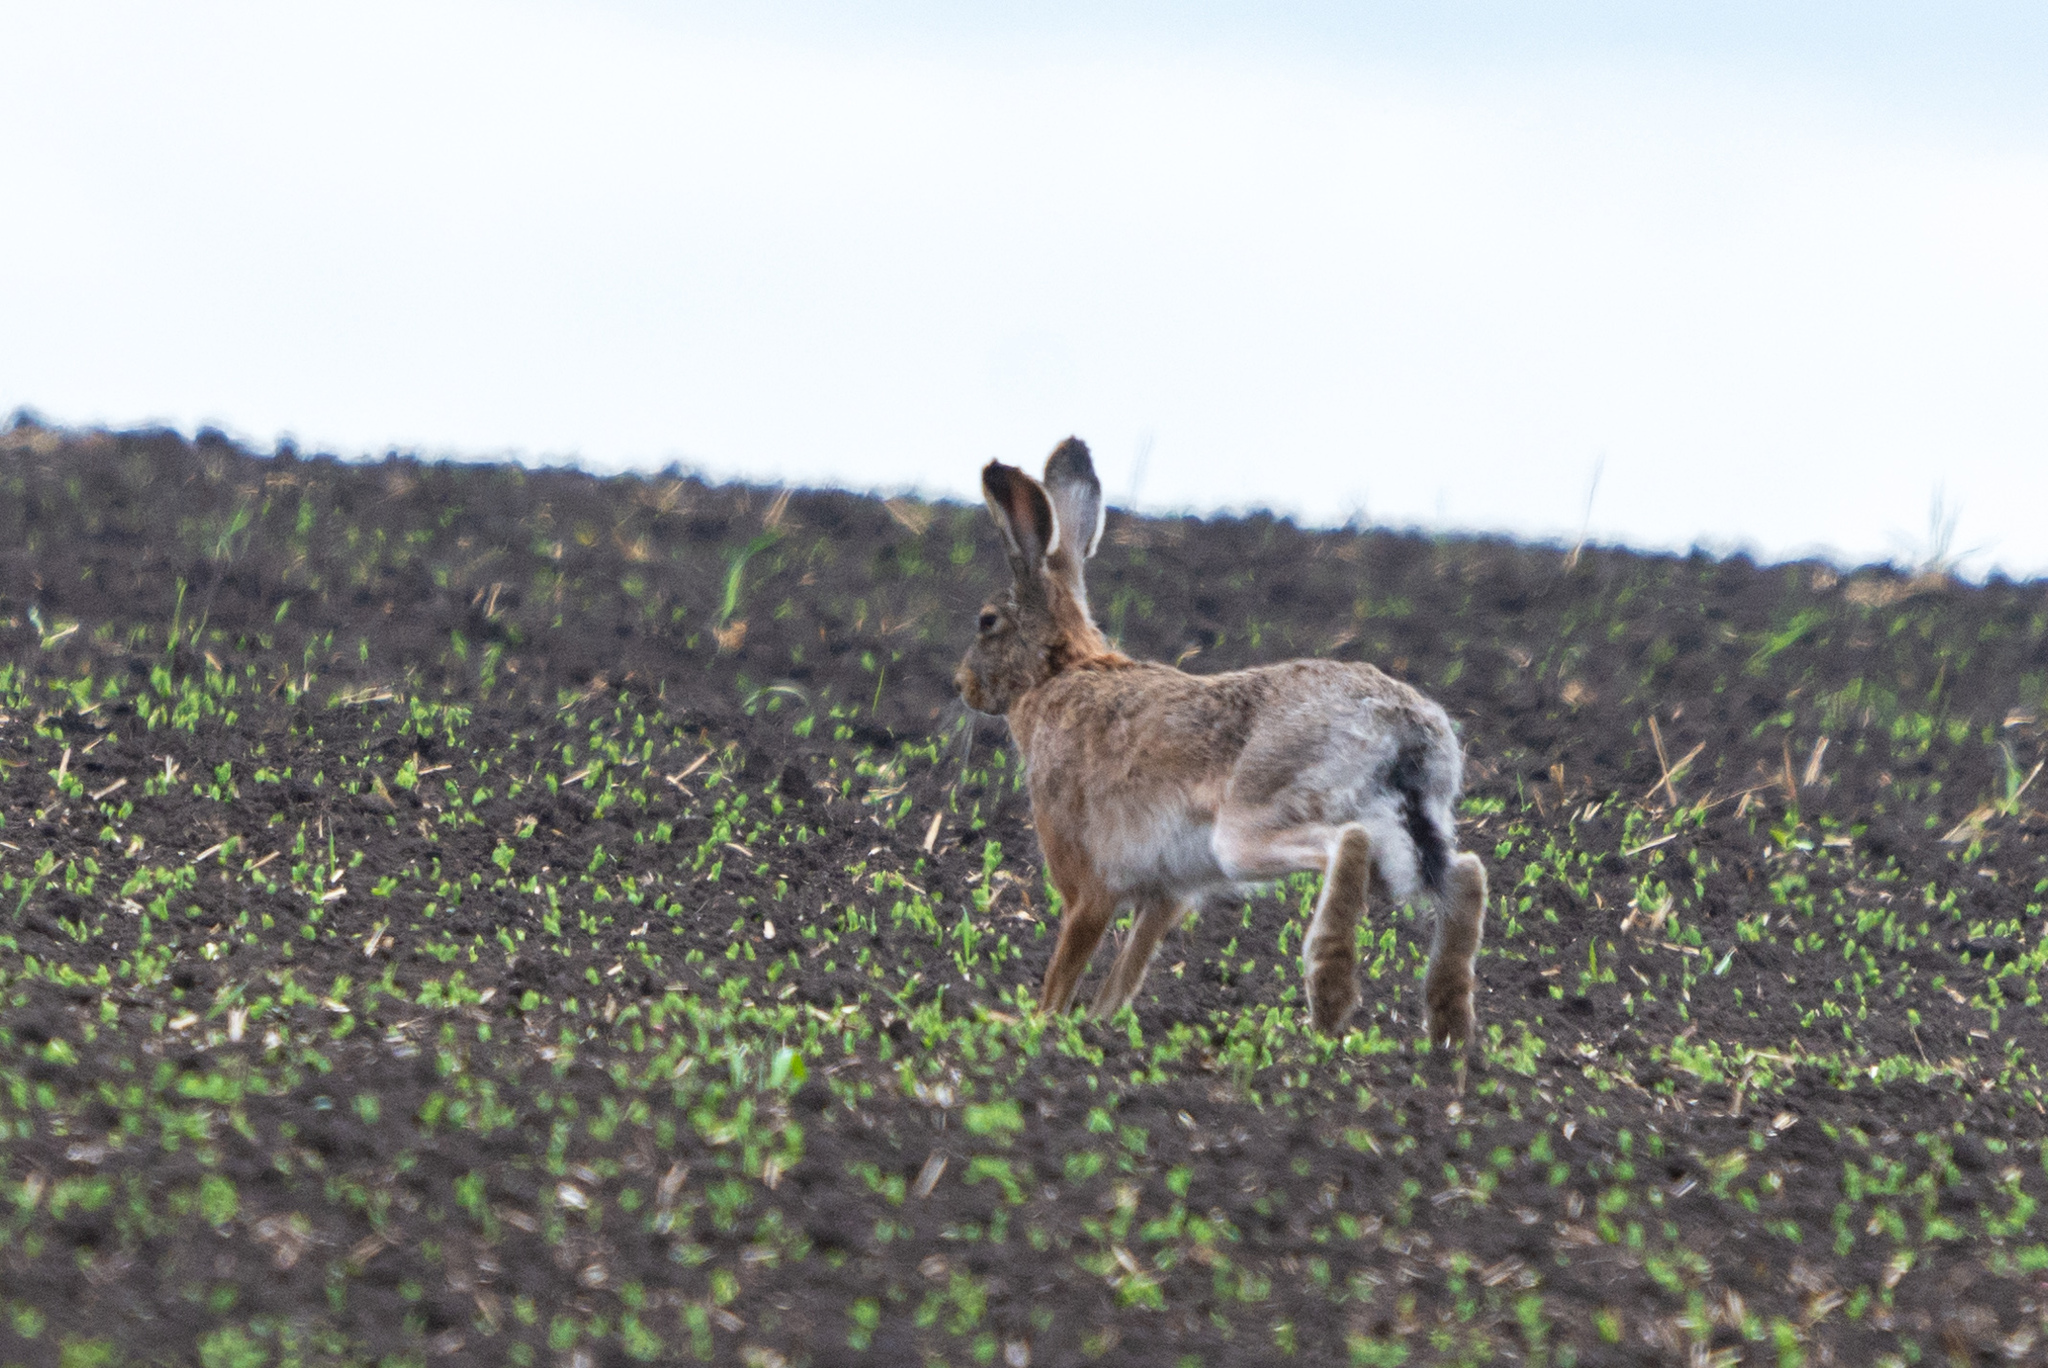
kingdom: Animalia
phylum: Chordata
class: Mammalia
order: Lagomorpha
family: Leporidae
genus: Lepus
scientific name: Lepus europaeus
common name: European hare
